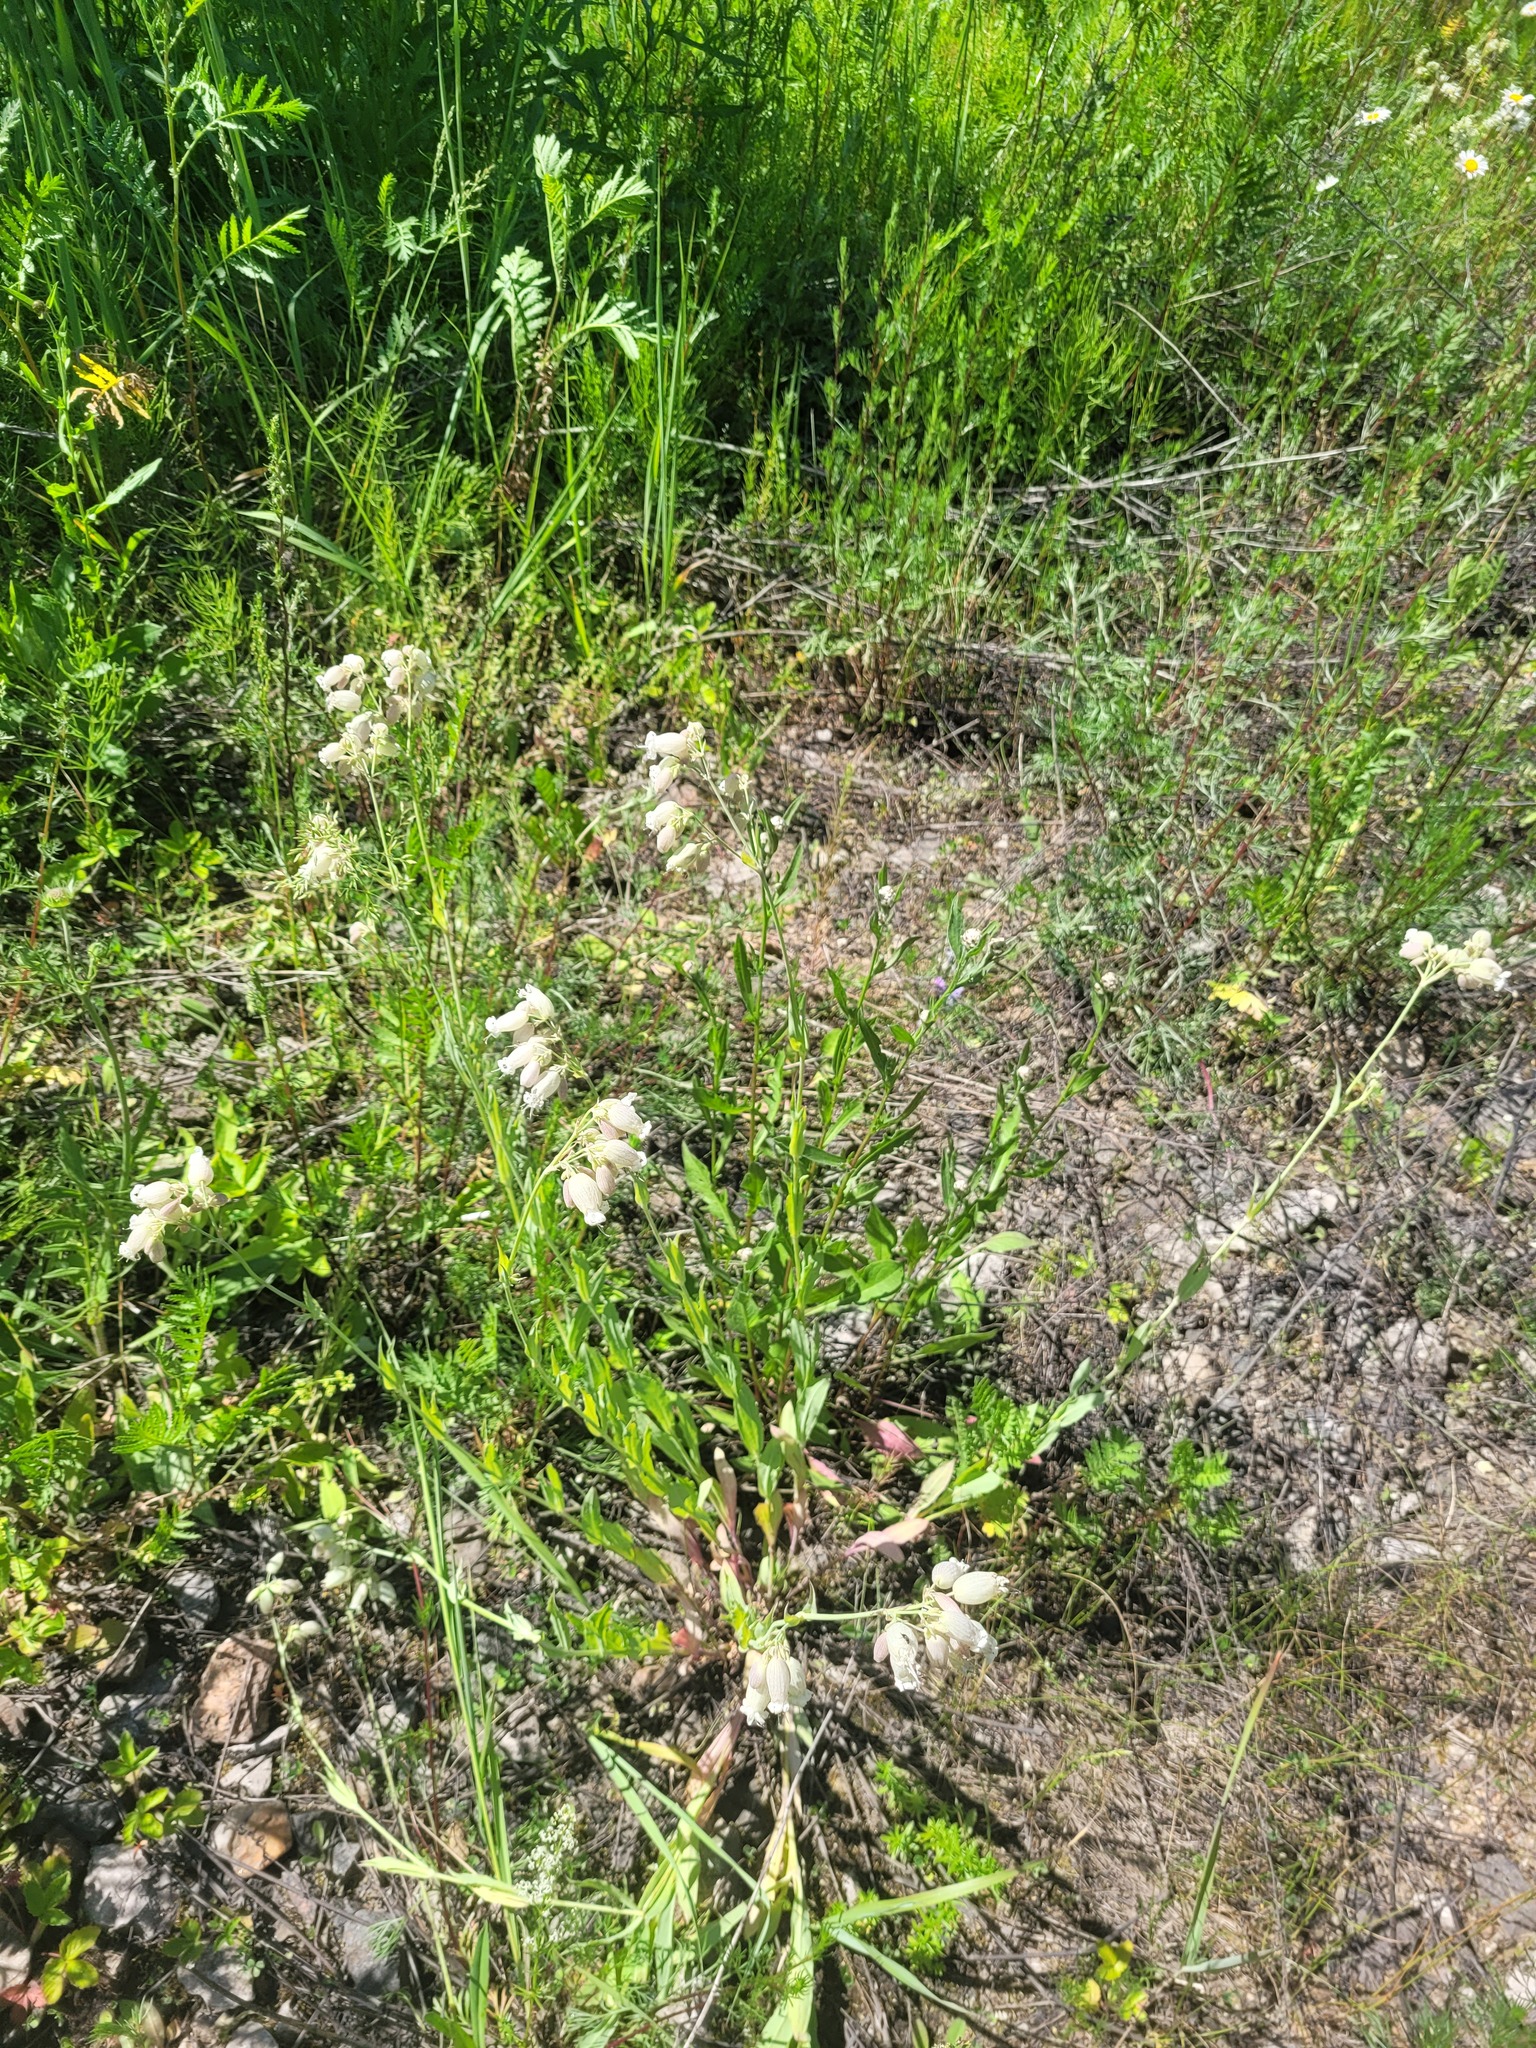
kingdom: Plantae
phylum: Tracheophyta
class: Magnoliopsida
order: Caryophyllales
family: Caryophyllaceae
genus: Silene
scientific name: Silene vulgaris
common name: Bladder campion
